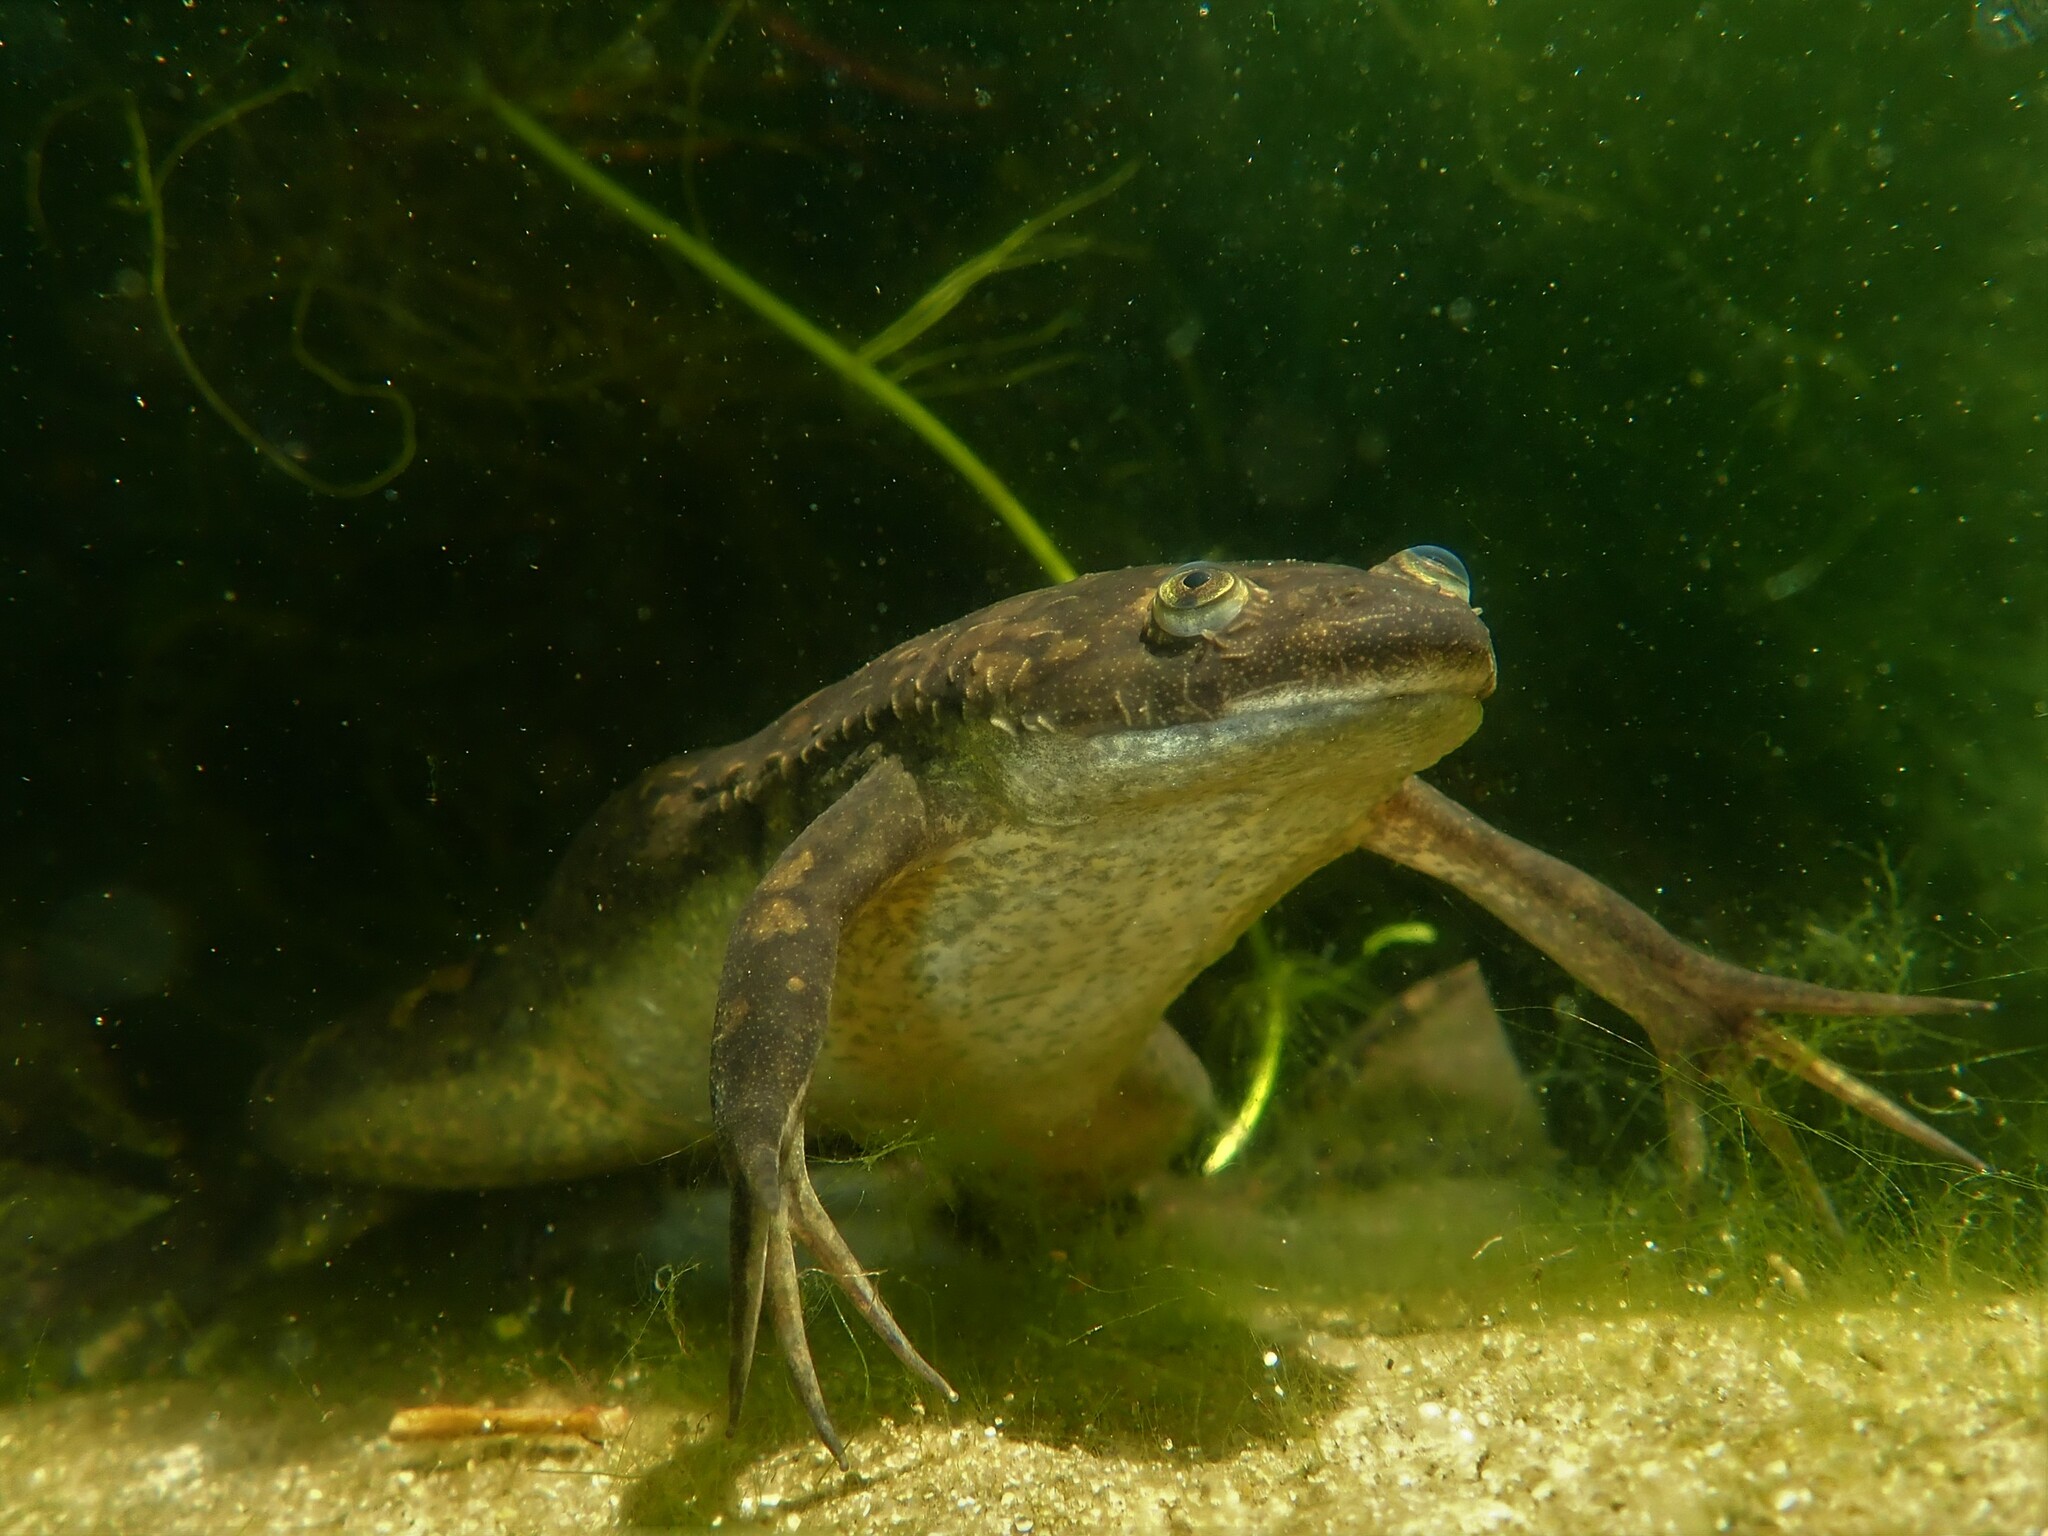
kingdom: Animalia
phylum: Chordata
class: Amphibia
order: Anura
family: Pipidae
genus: Xenopus
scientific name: Xenopus laevis
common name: African clawed frog
